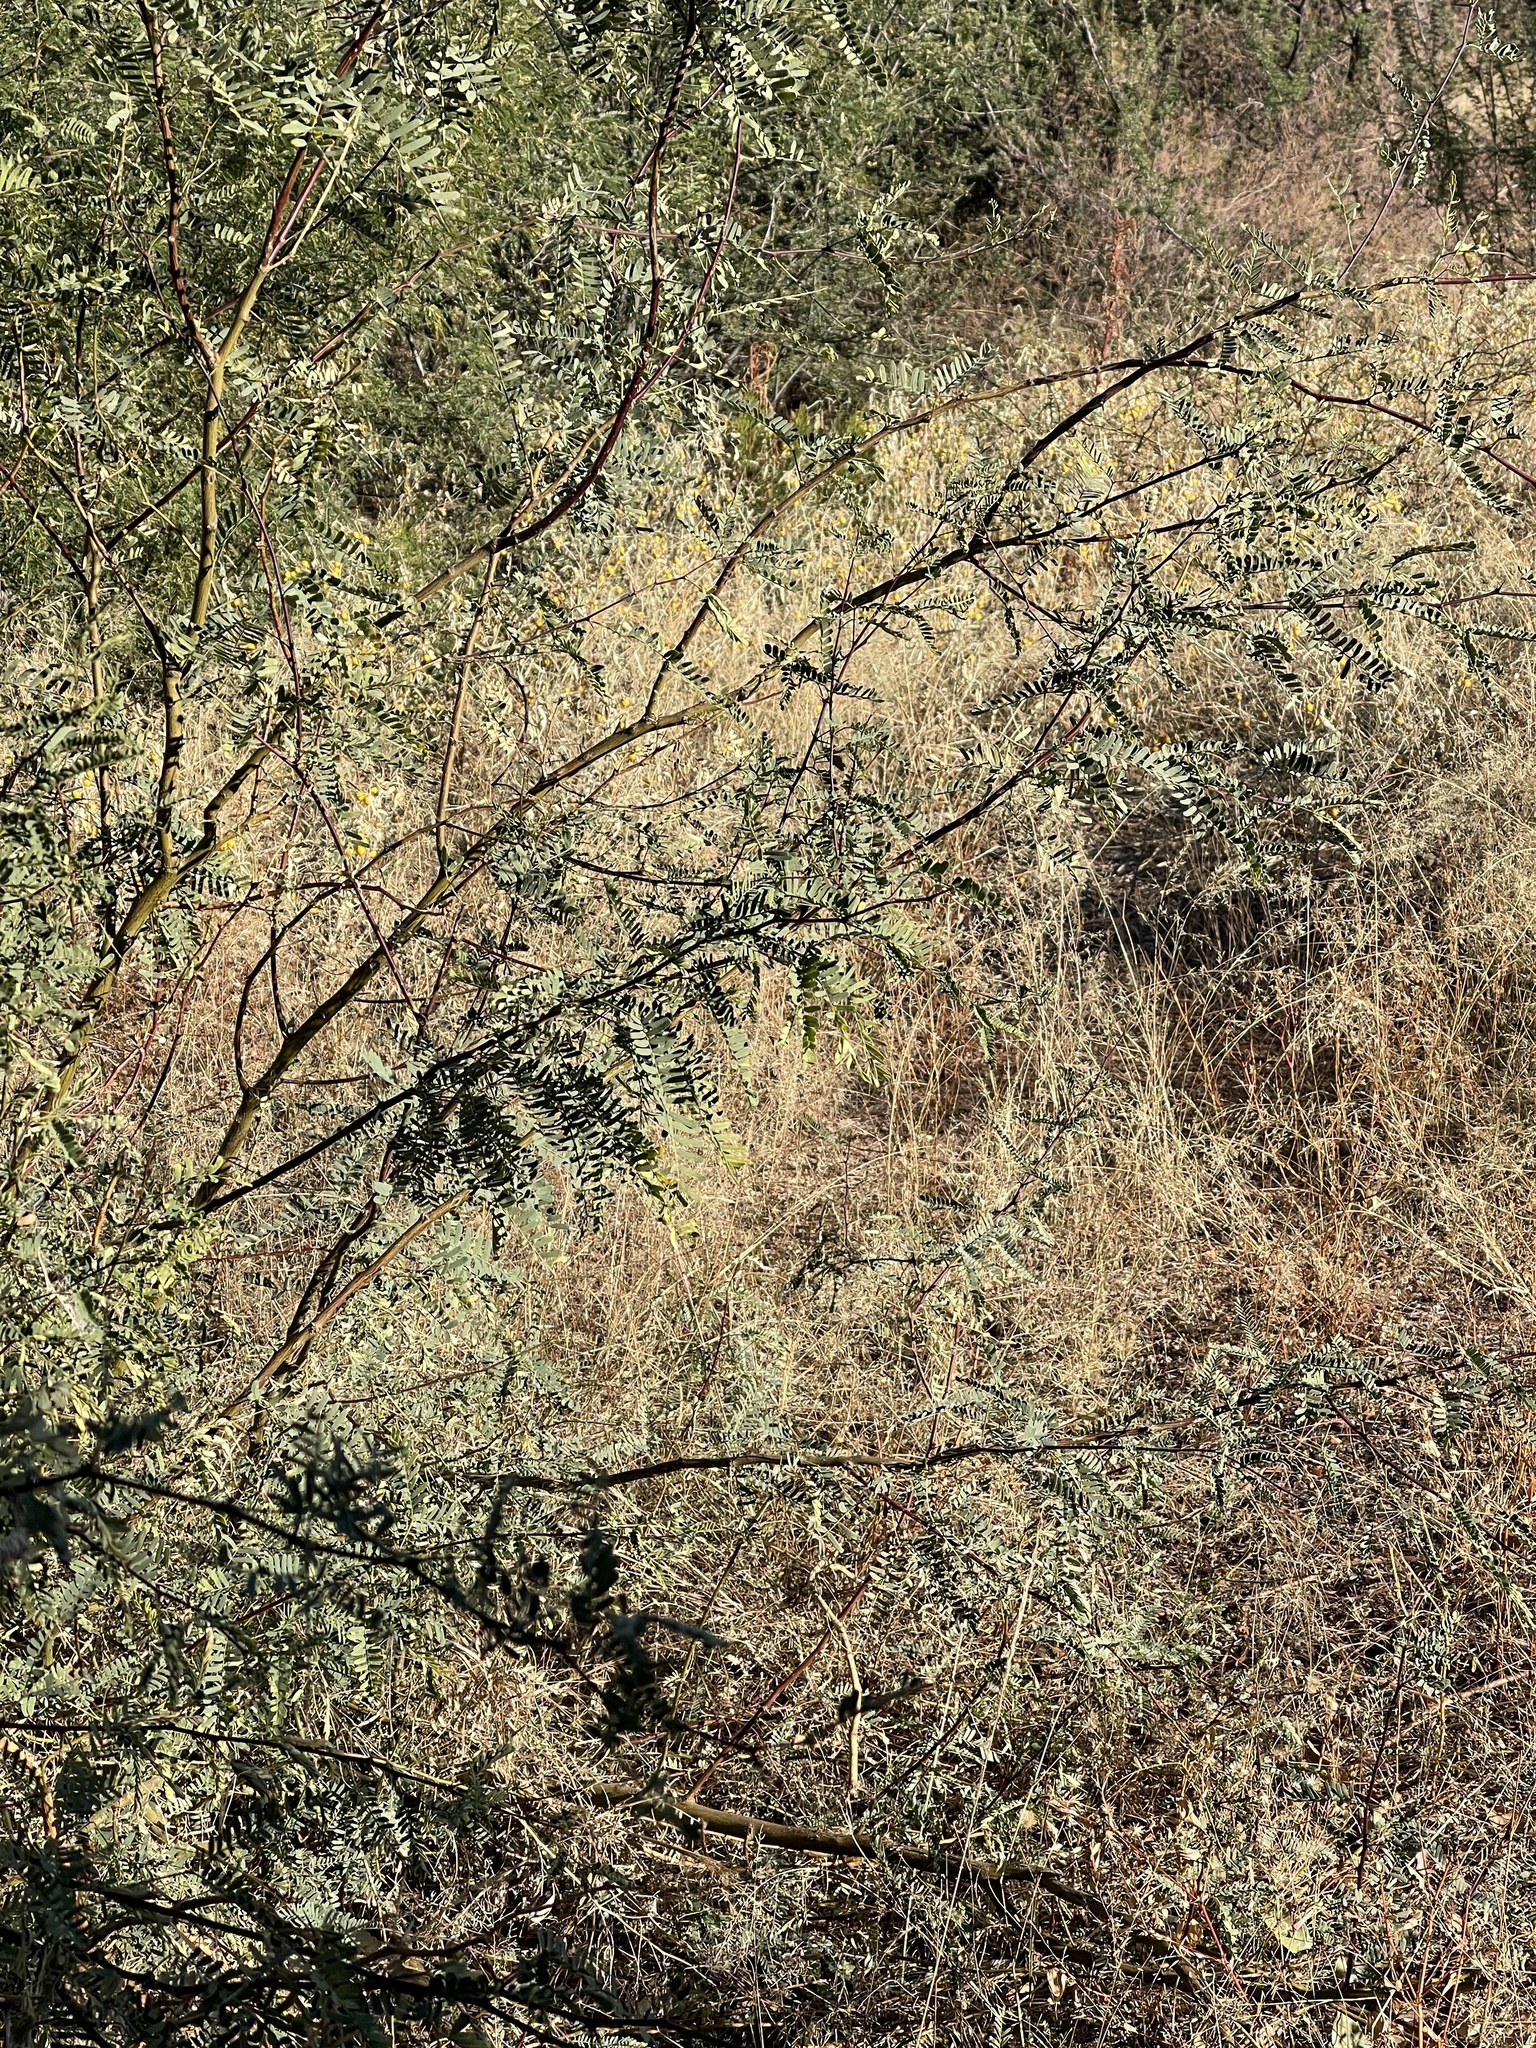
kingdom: Plantae
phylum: Tracheophyta
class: Magnoliopsida
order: Fabales
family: Fabaceae
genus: Prosopis
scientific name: Prosopis velutina
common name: Velvet mesquite
